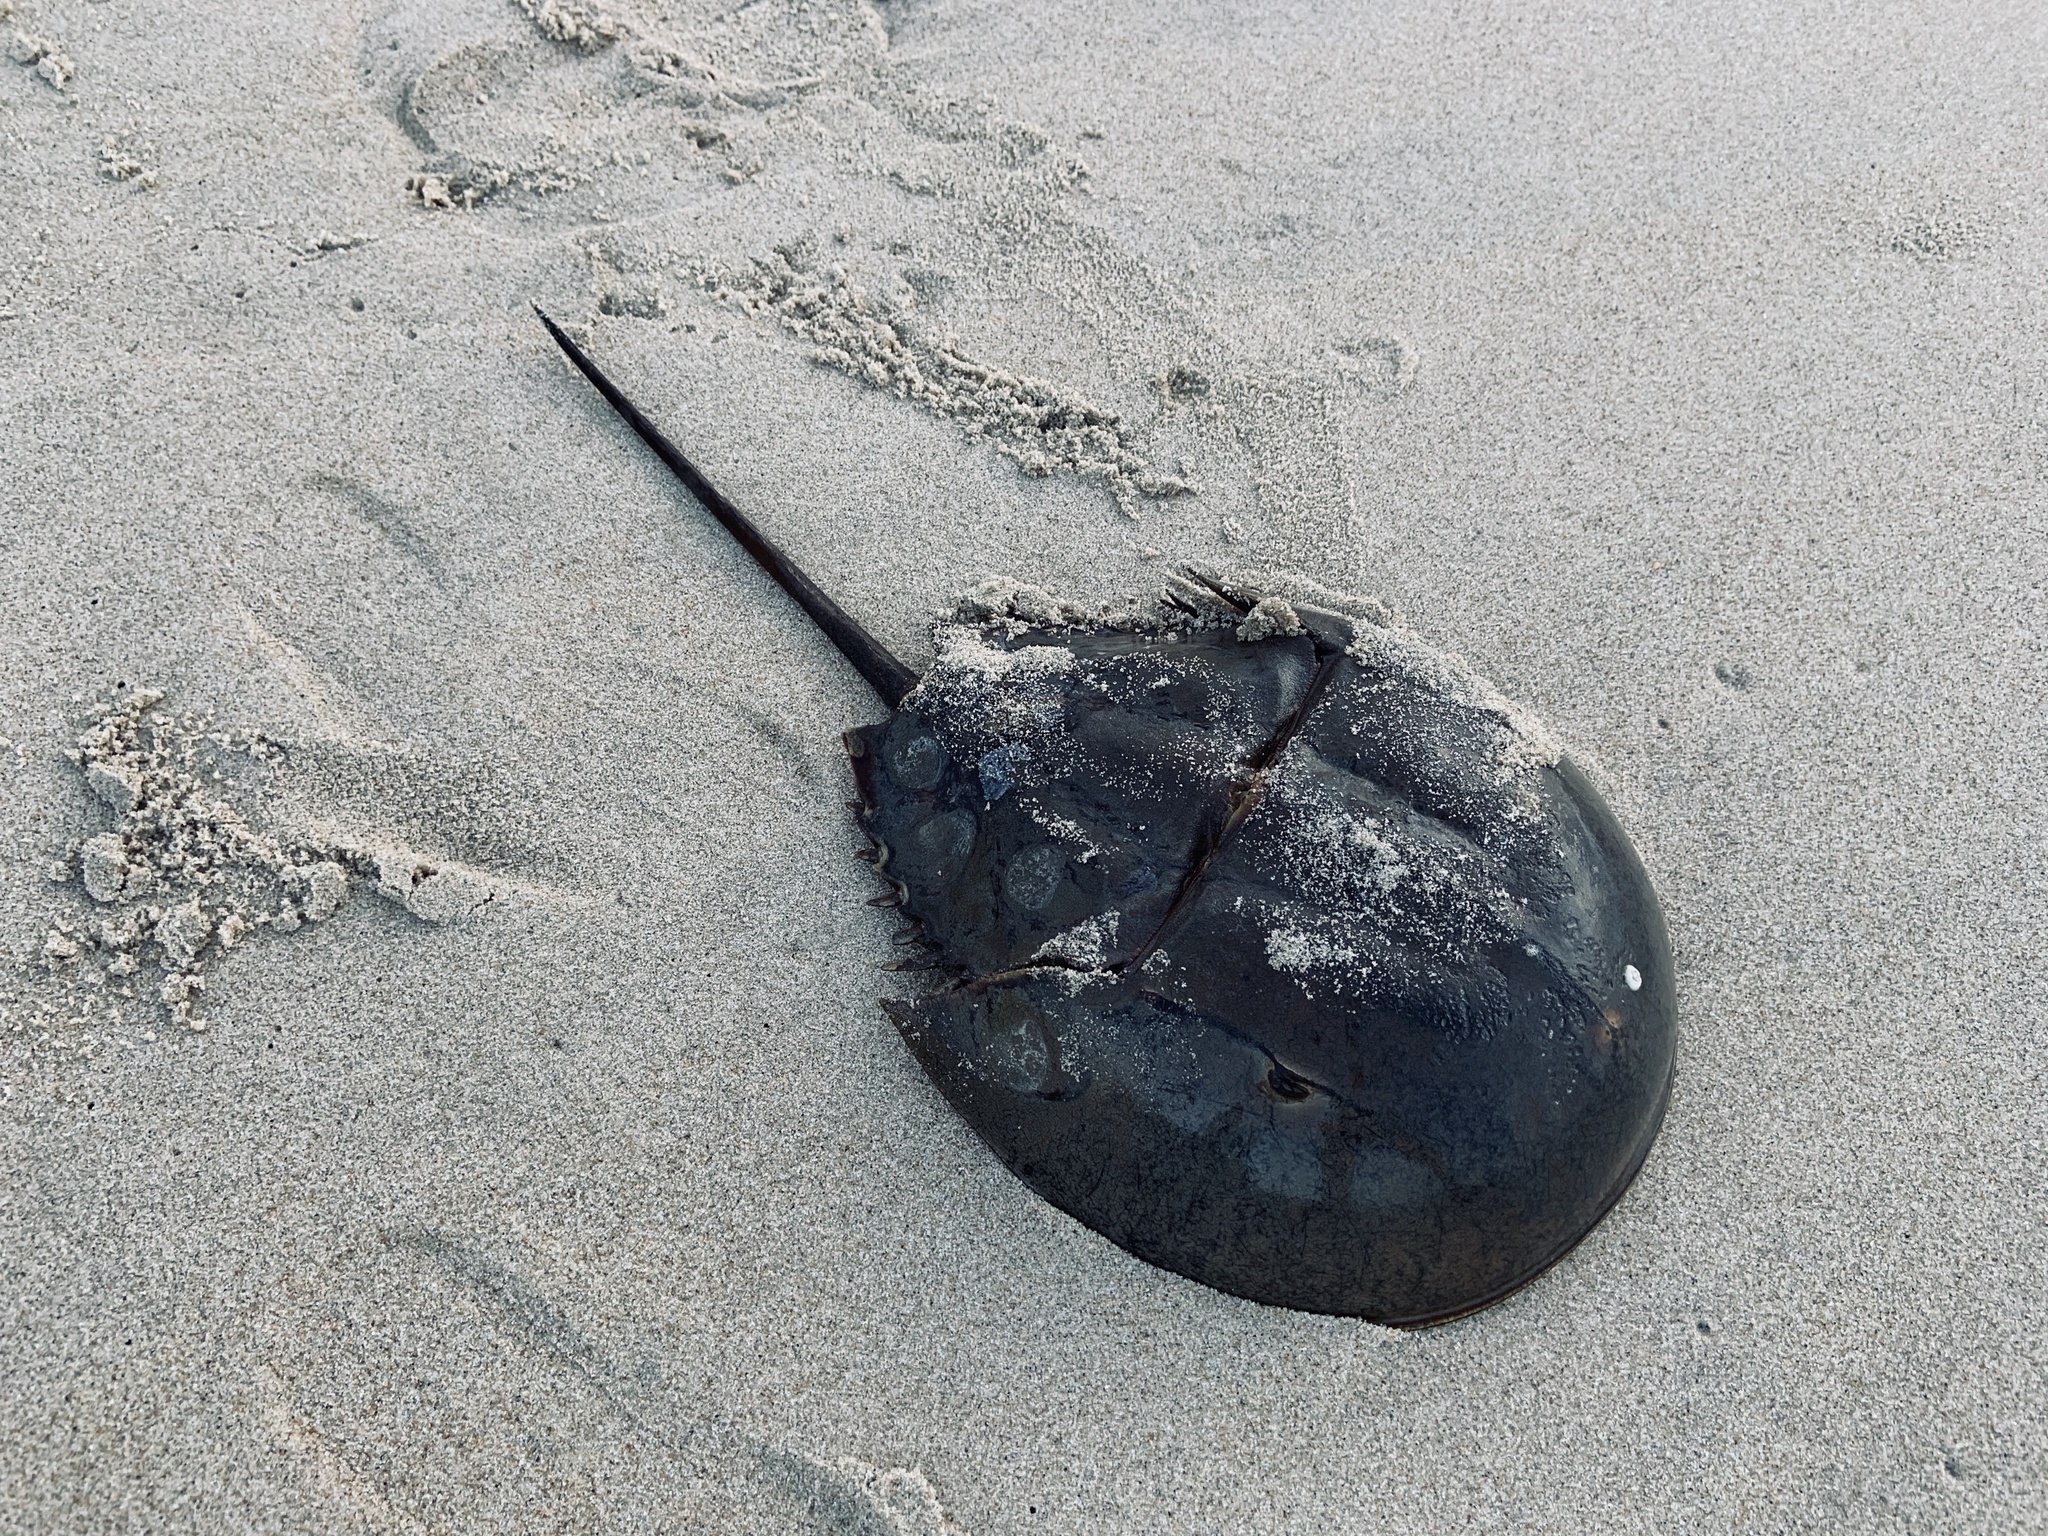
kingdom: Animalia
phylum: Arthropoda
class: Merostomata
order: Xiphosurida
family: Limulidae
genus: Limulus
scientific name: Limulus polyphemus
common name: Horseshoe crab
